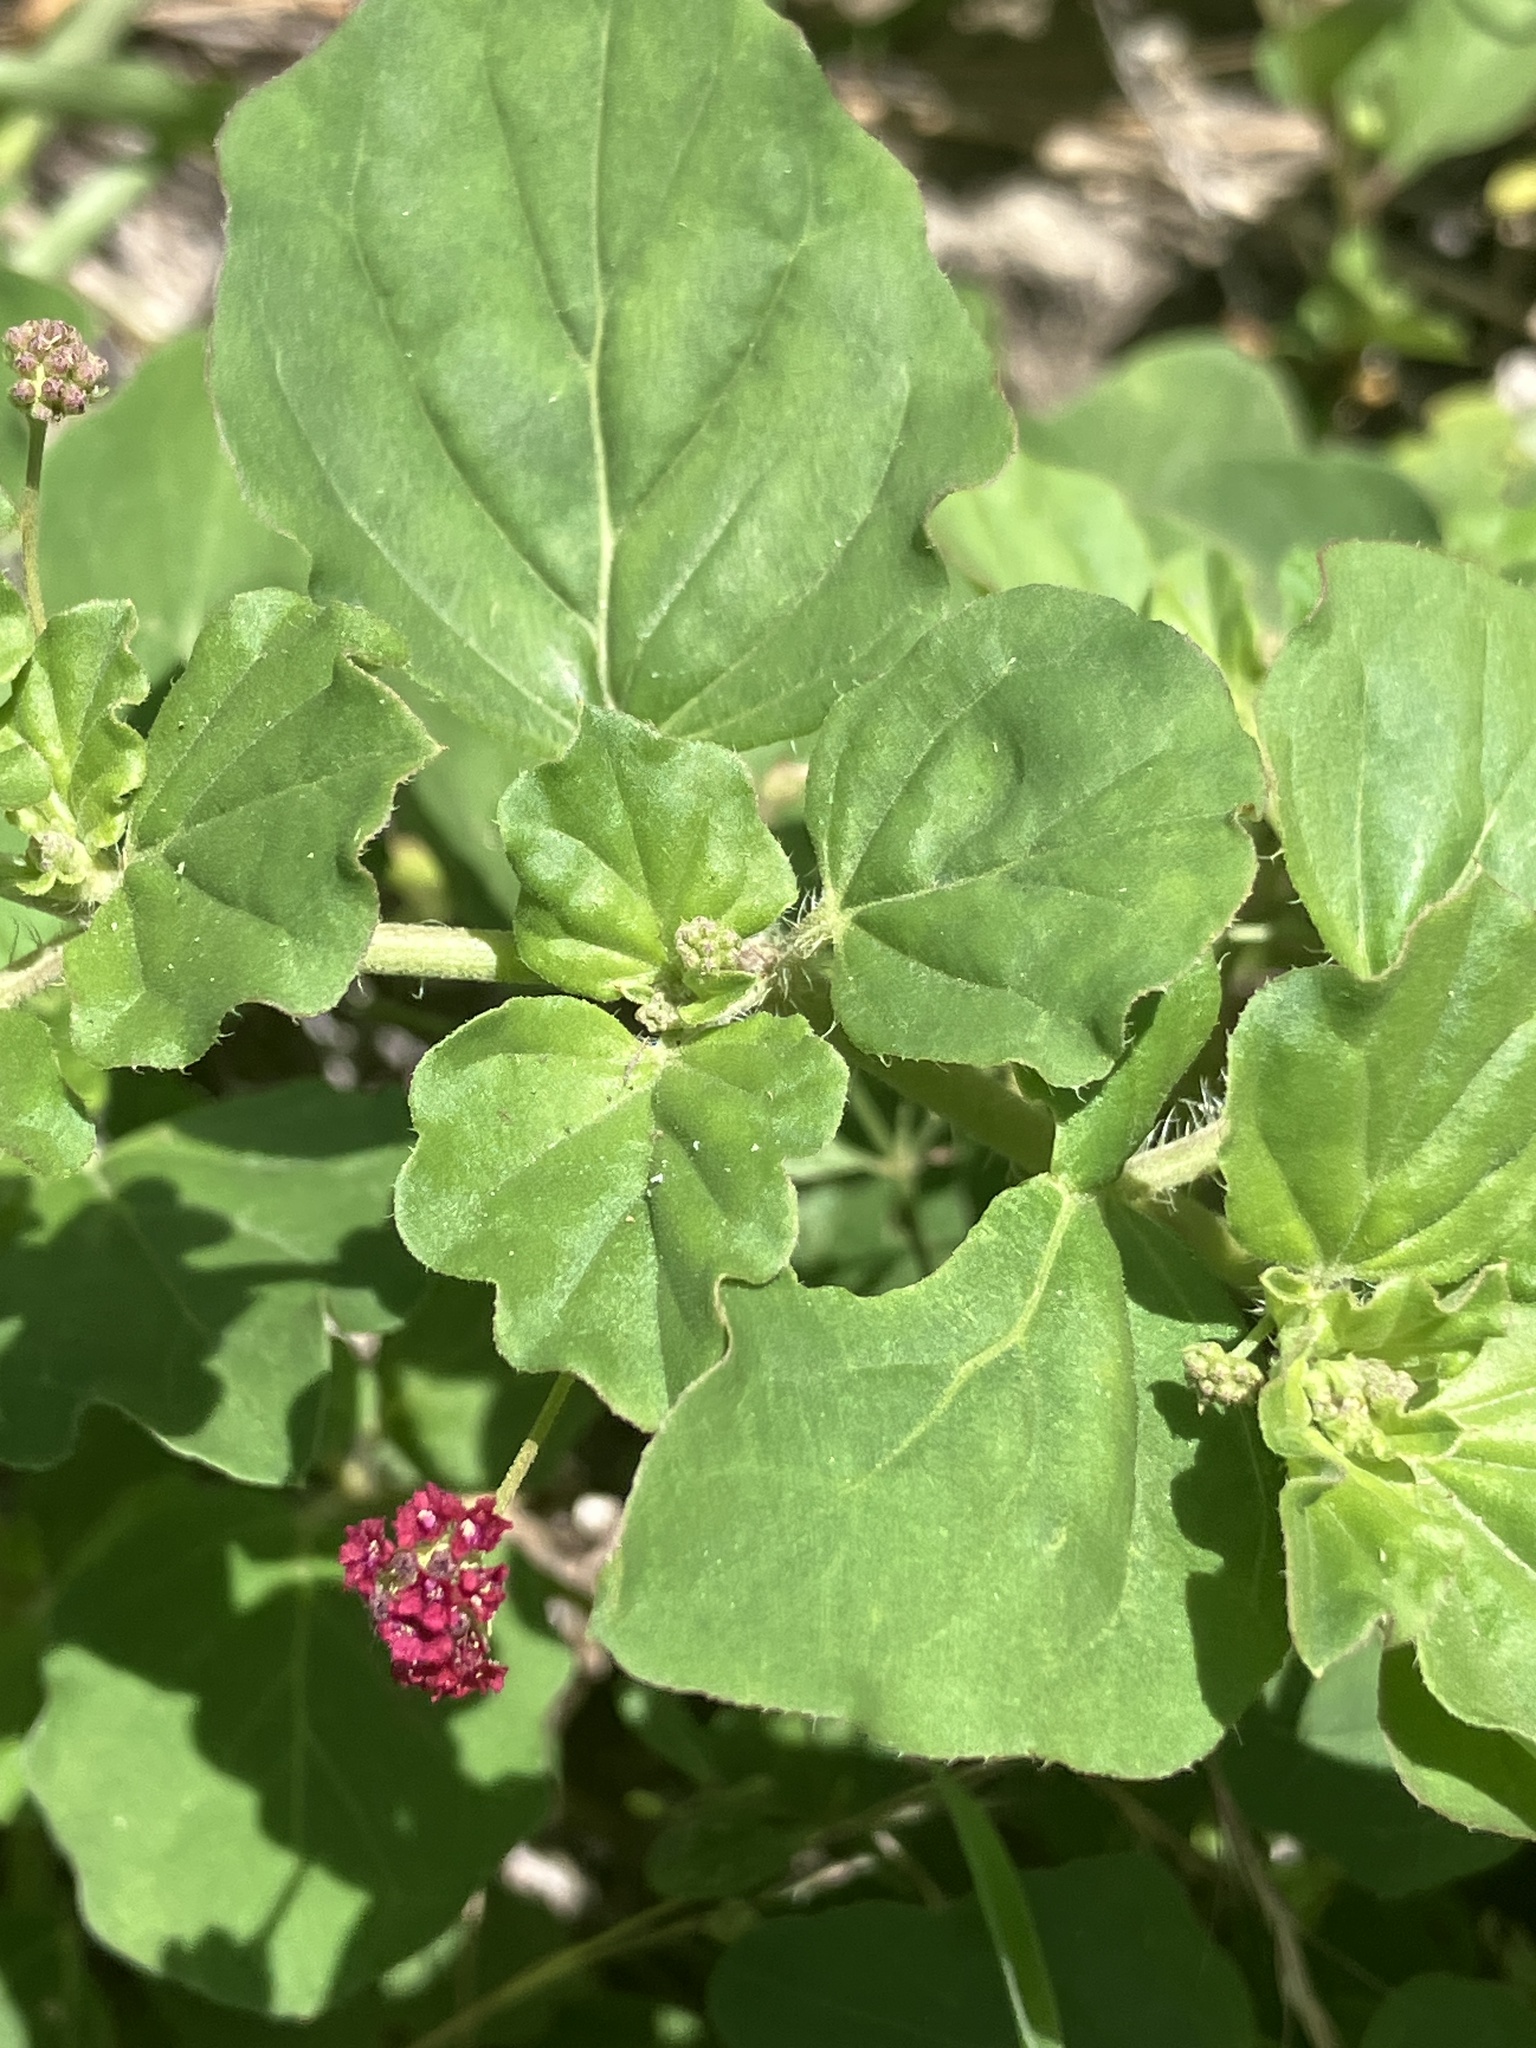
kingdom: Plantae
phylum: Tracheophyta
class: Magnoliopsida
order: Caryophyllales
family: Nyctaginaceae
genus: Boerhavia
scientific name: Boerhavia coccinea
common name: Scarlet spiderling
